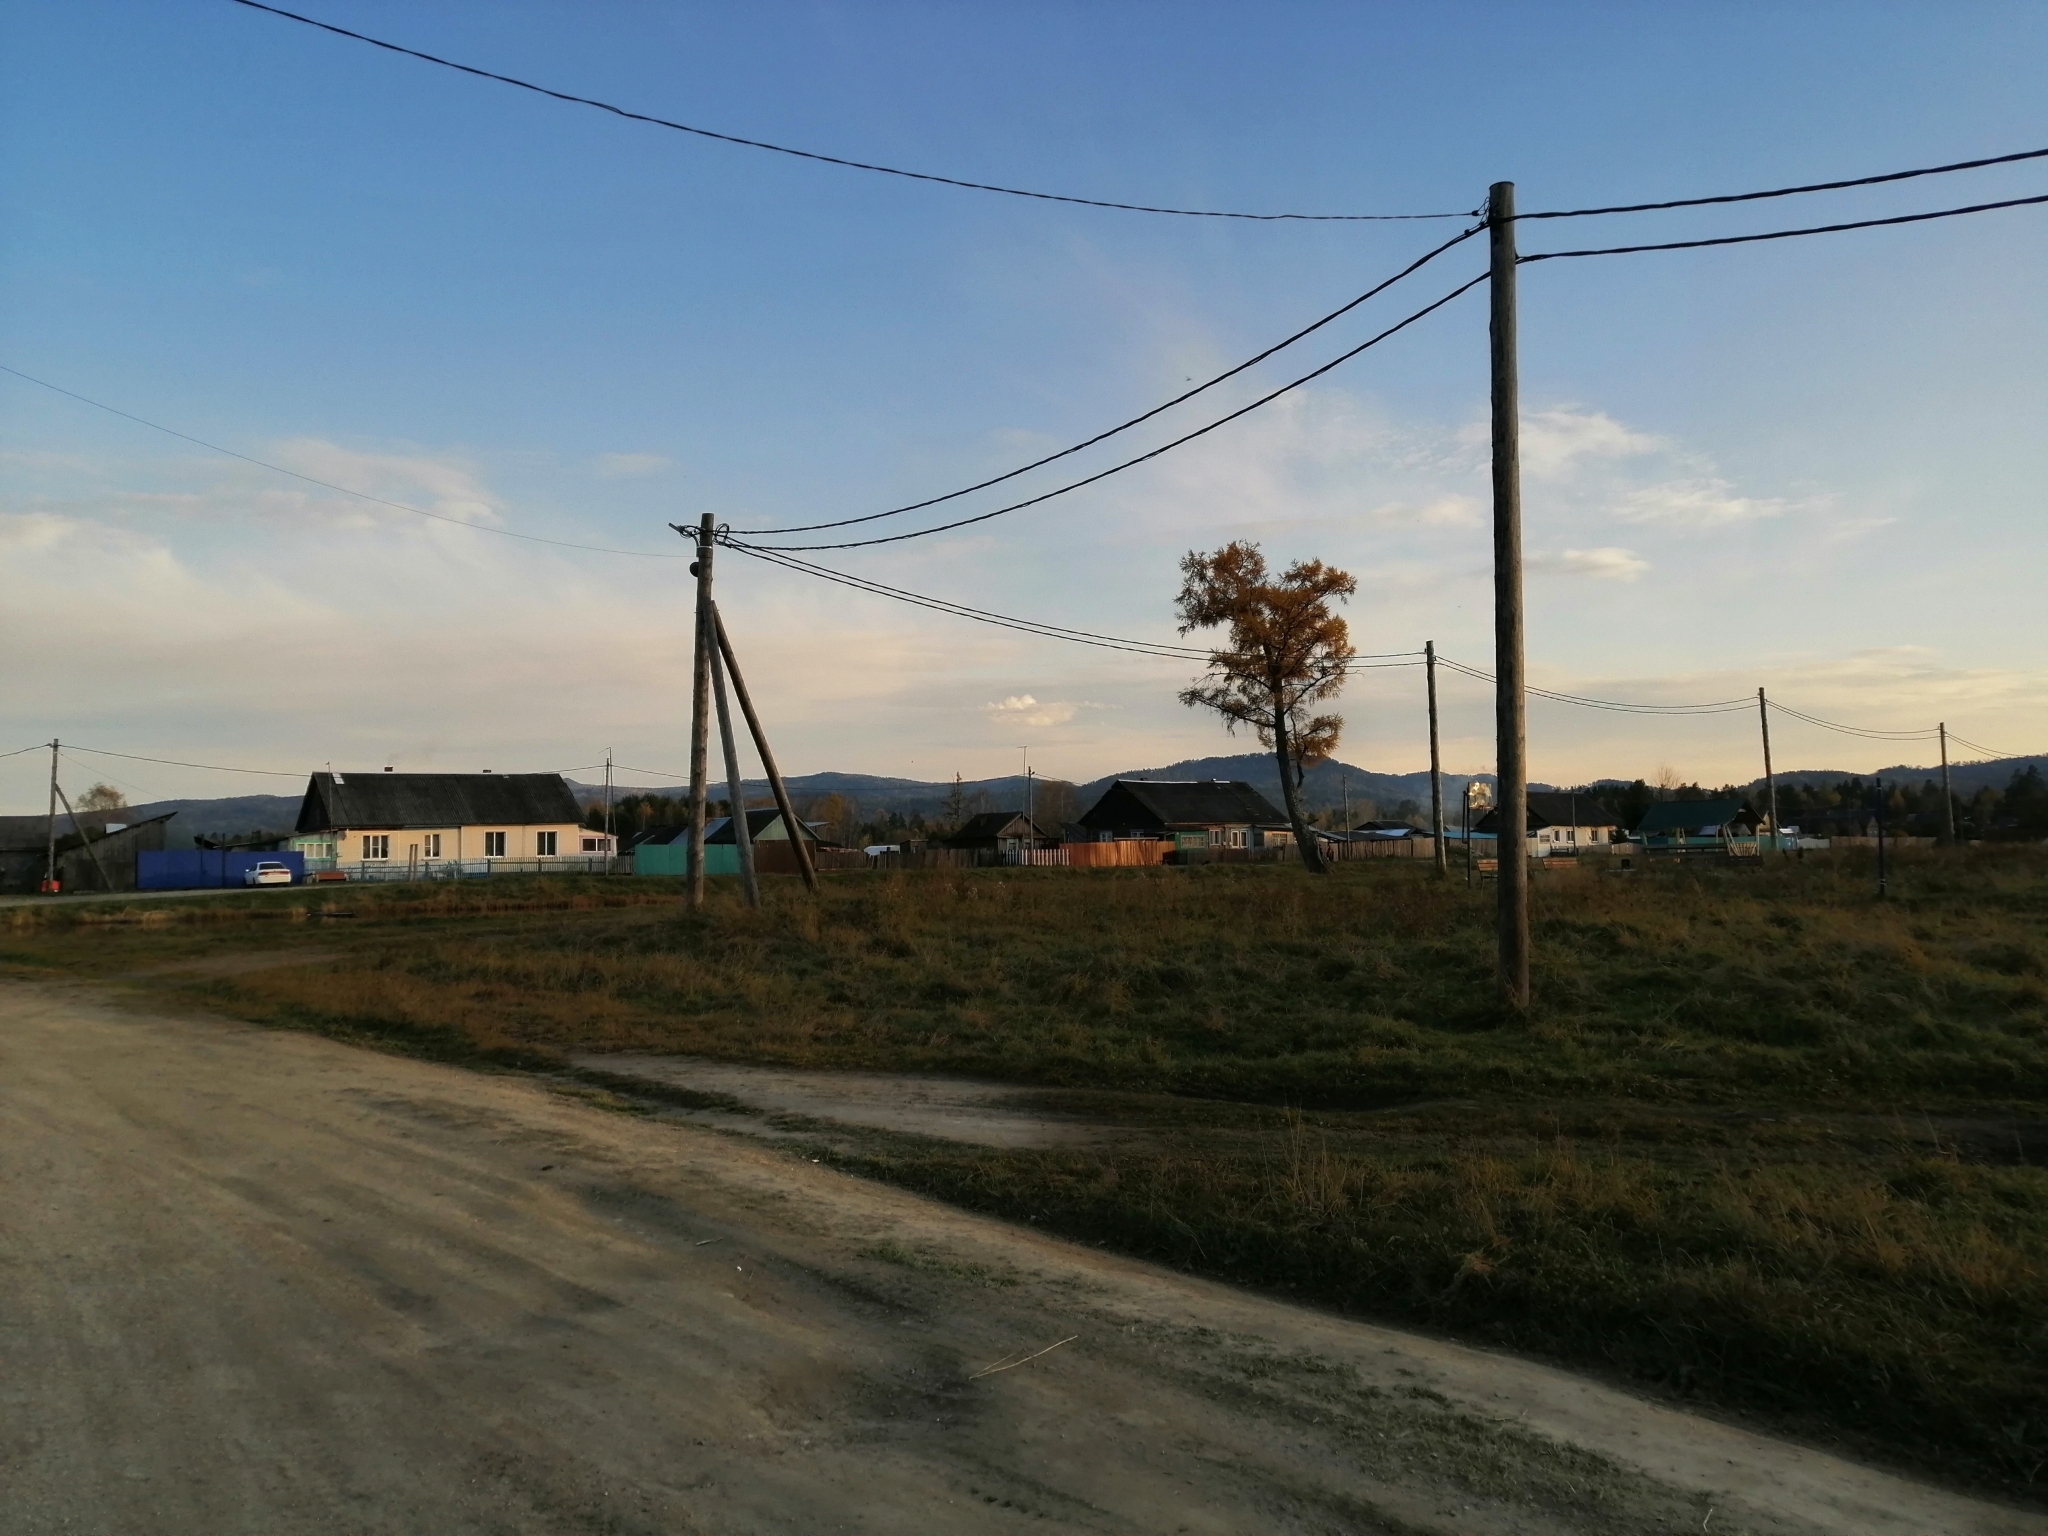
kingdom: Plantae
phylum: Tracheophyta
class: Pinopsida
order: Pinales
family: Pinaceae
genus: Larix
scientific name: Larix sibirica
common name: Siberian larch
